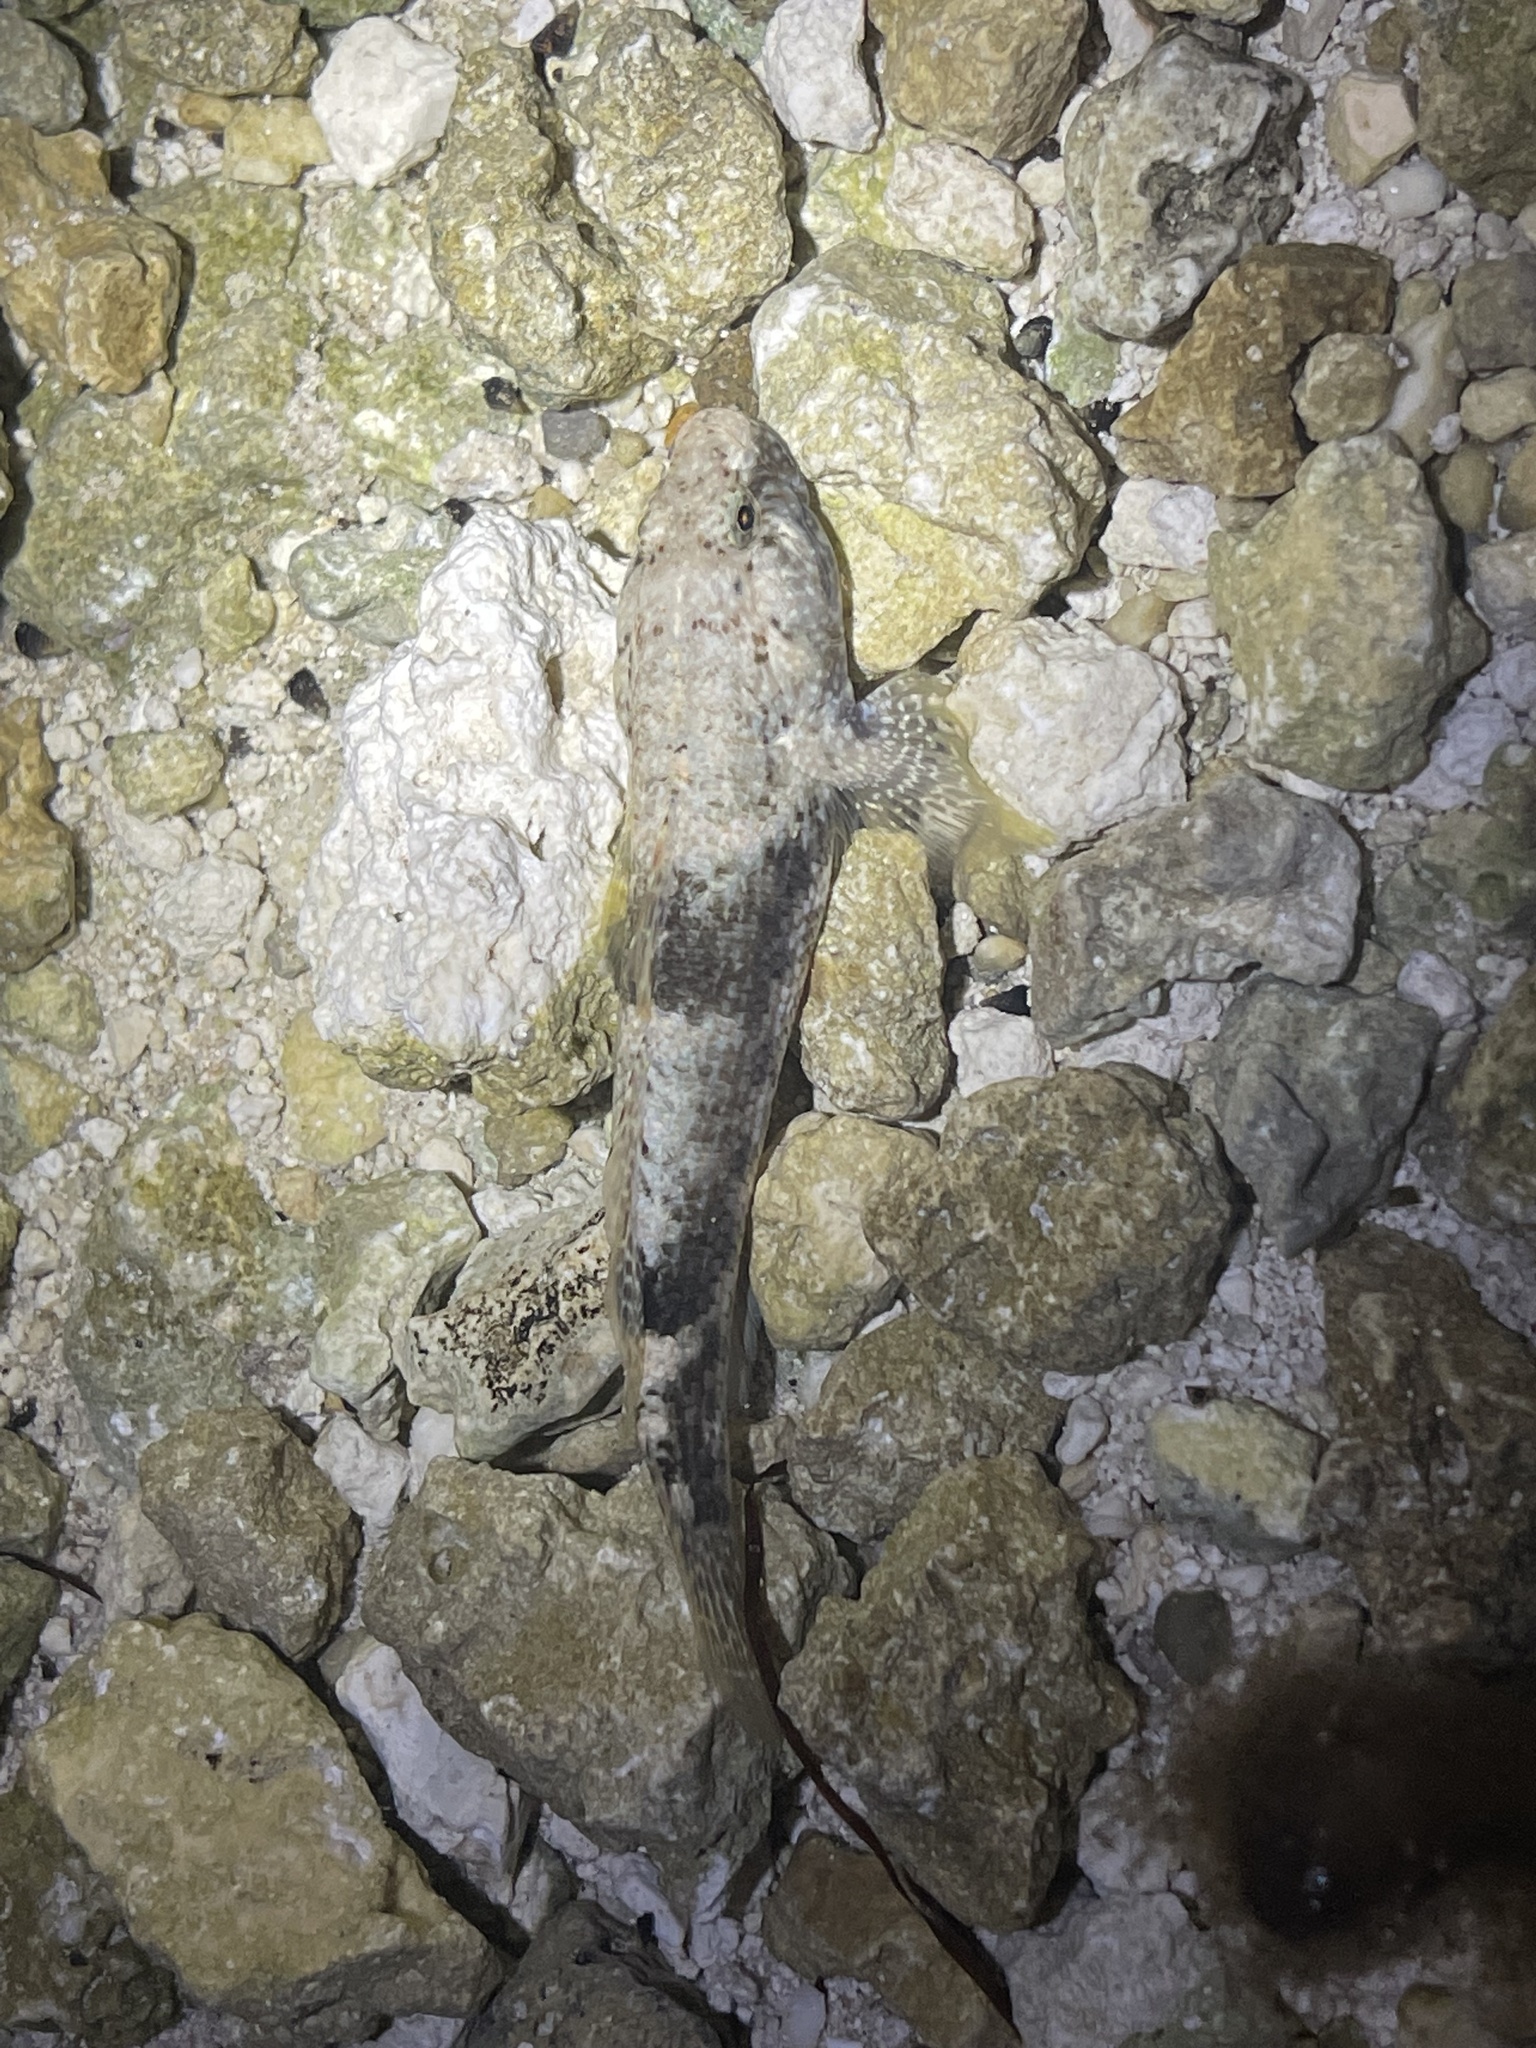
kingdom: Animalia
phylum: Chordata
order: Perciformes
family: Gobiidae
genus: Bathygobius
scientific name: Bathygobius soporator
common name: Frillfin goby
